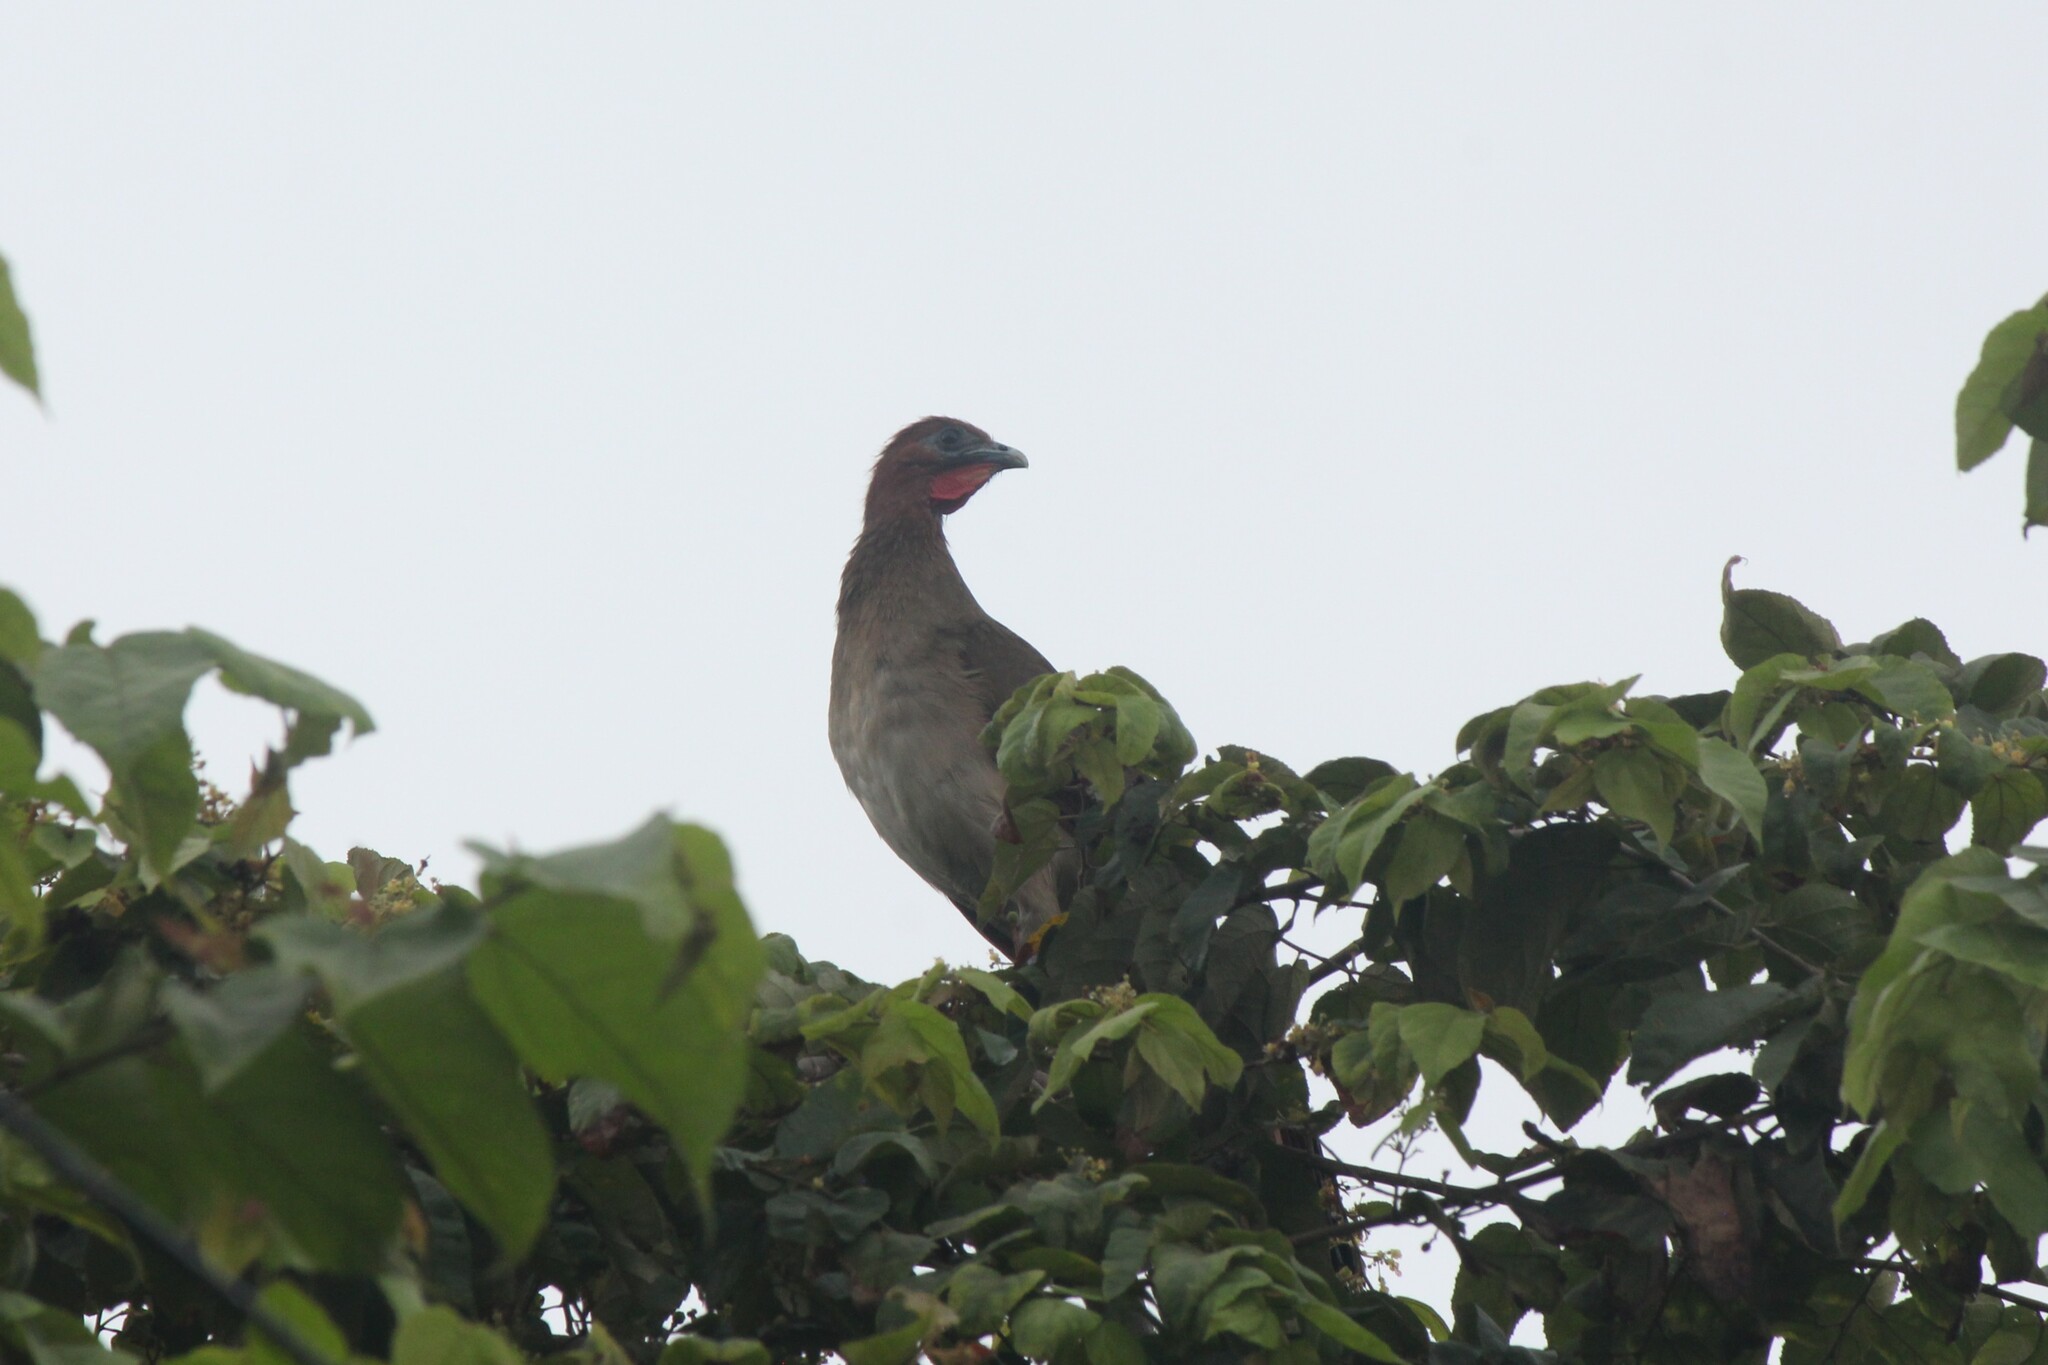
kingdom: Animalia
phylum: Chordata
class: Aves
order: Galliformes
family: Cracidae
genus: Ortalis
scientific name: Ortalis erythroptera
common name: Rufous-headed chachalaca
